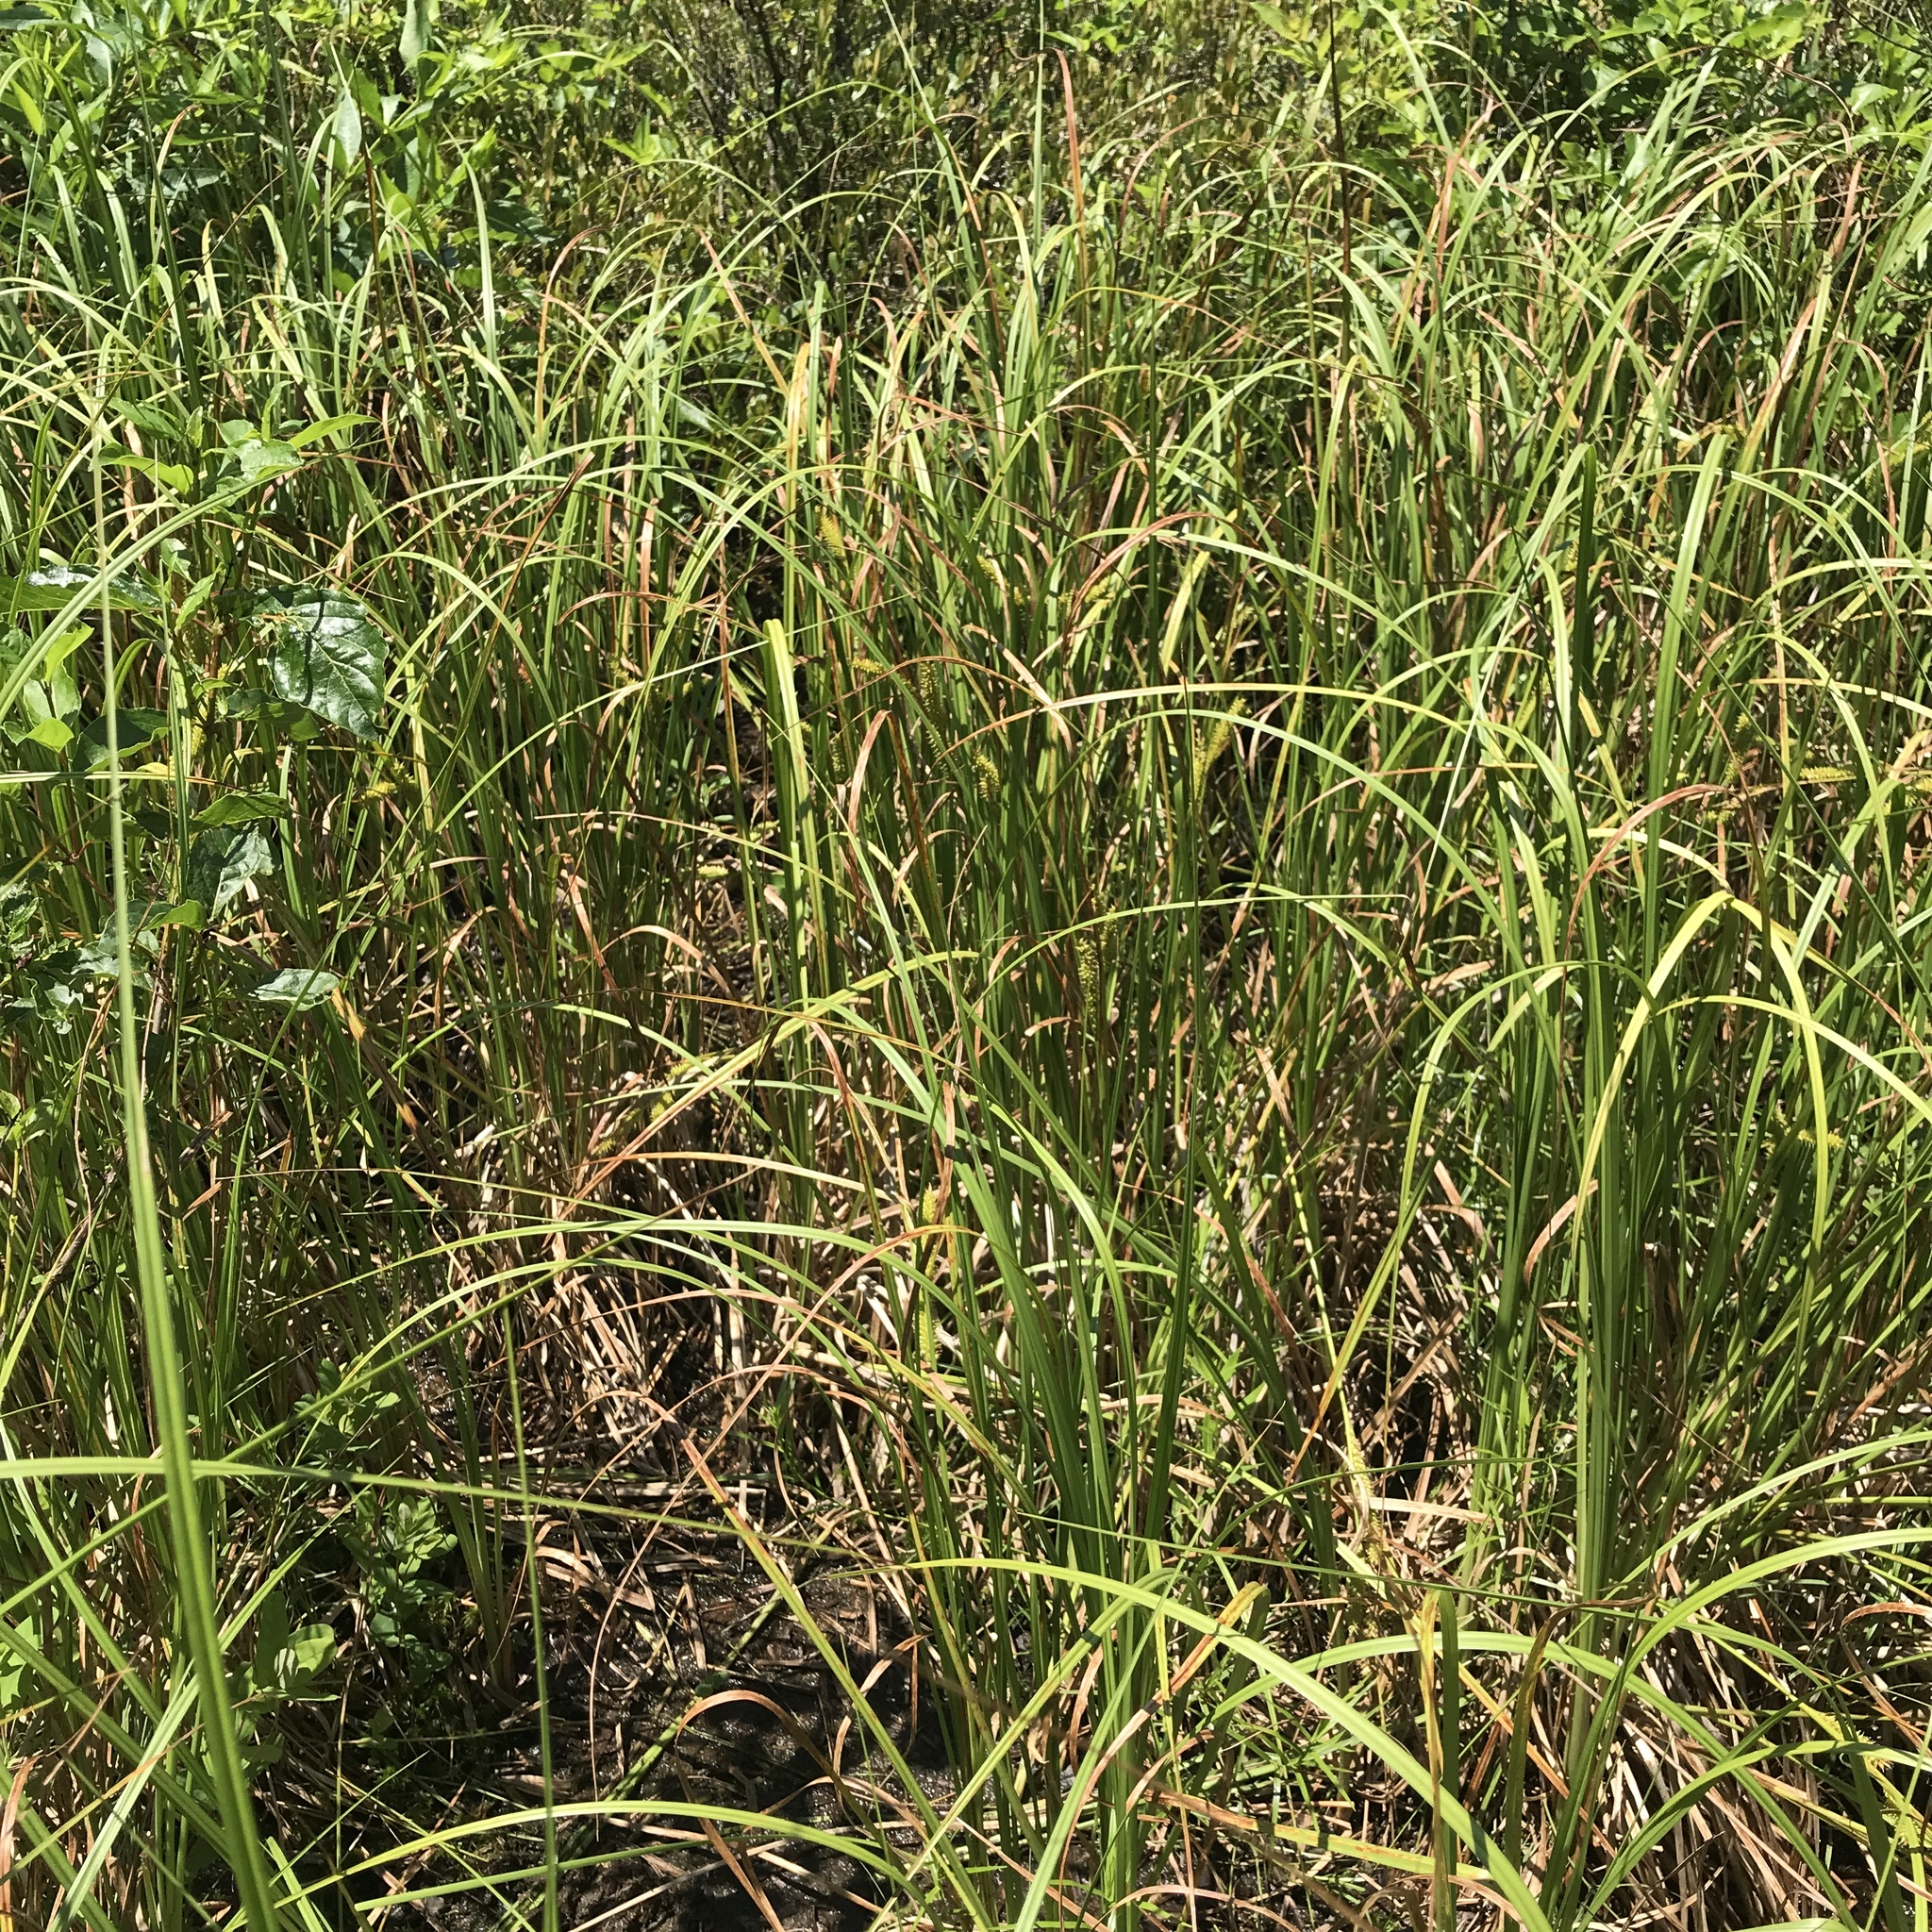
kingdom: Plantae
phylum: Tracheophyta
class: Liliopsida
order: Poales
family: Cyperaceae
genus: Carex
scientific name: Carex utriculata
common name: Beaked sedge
